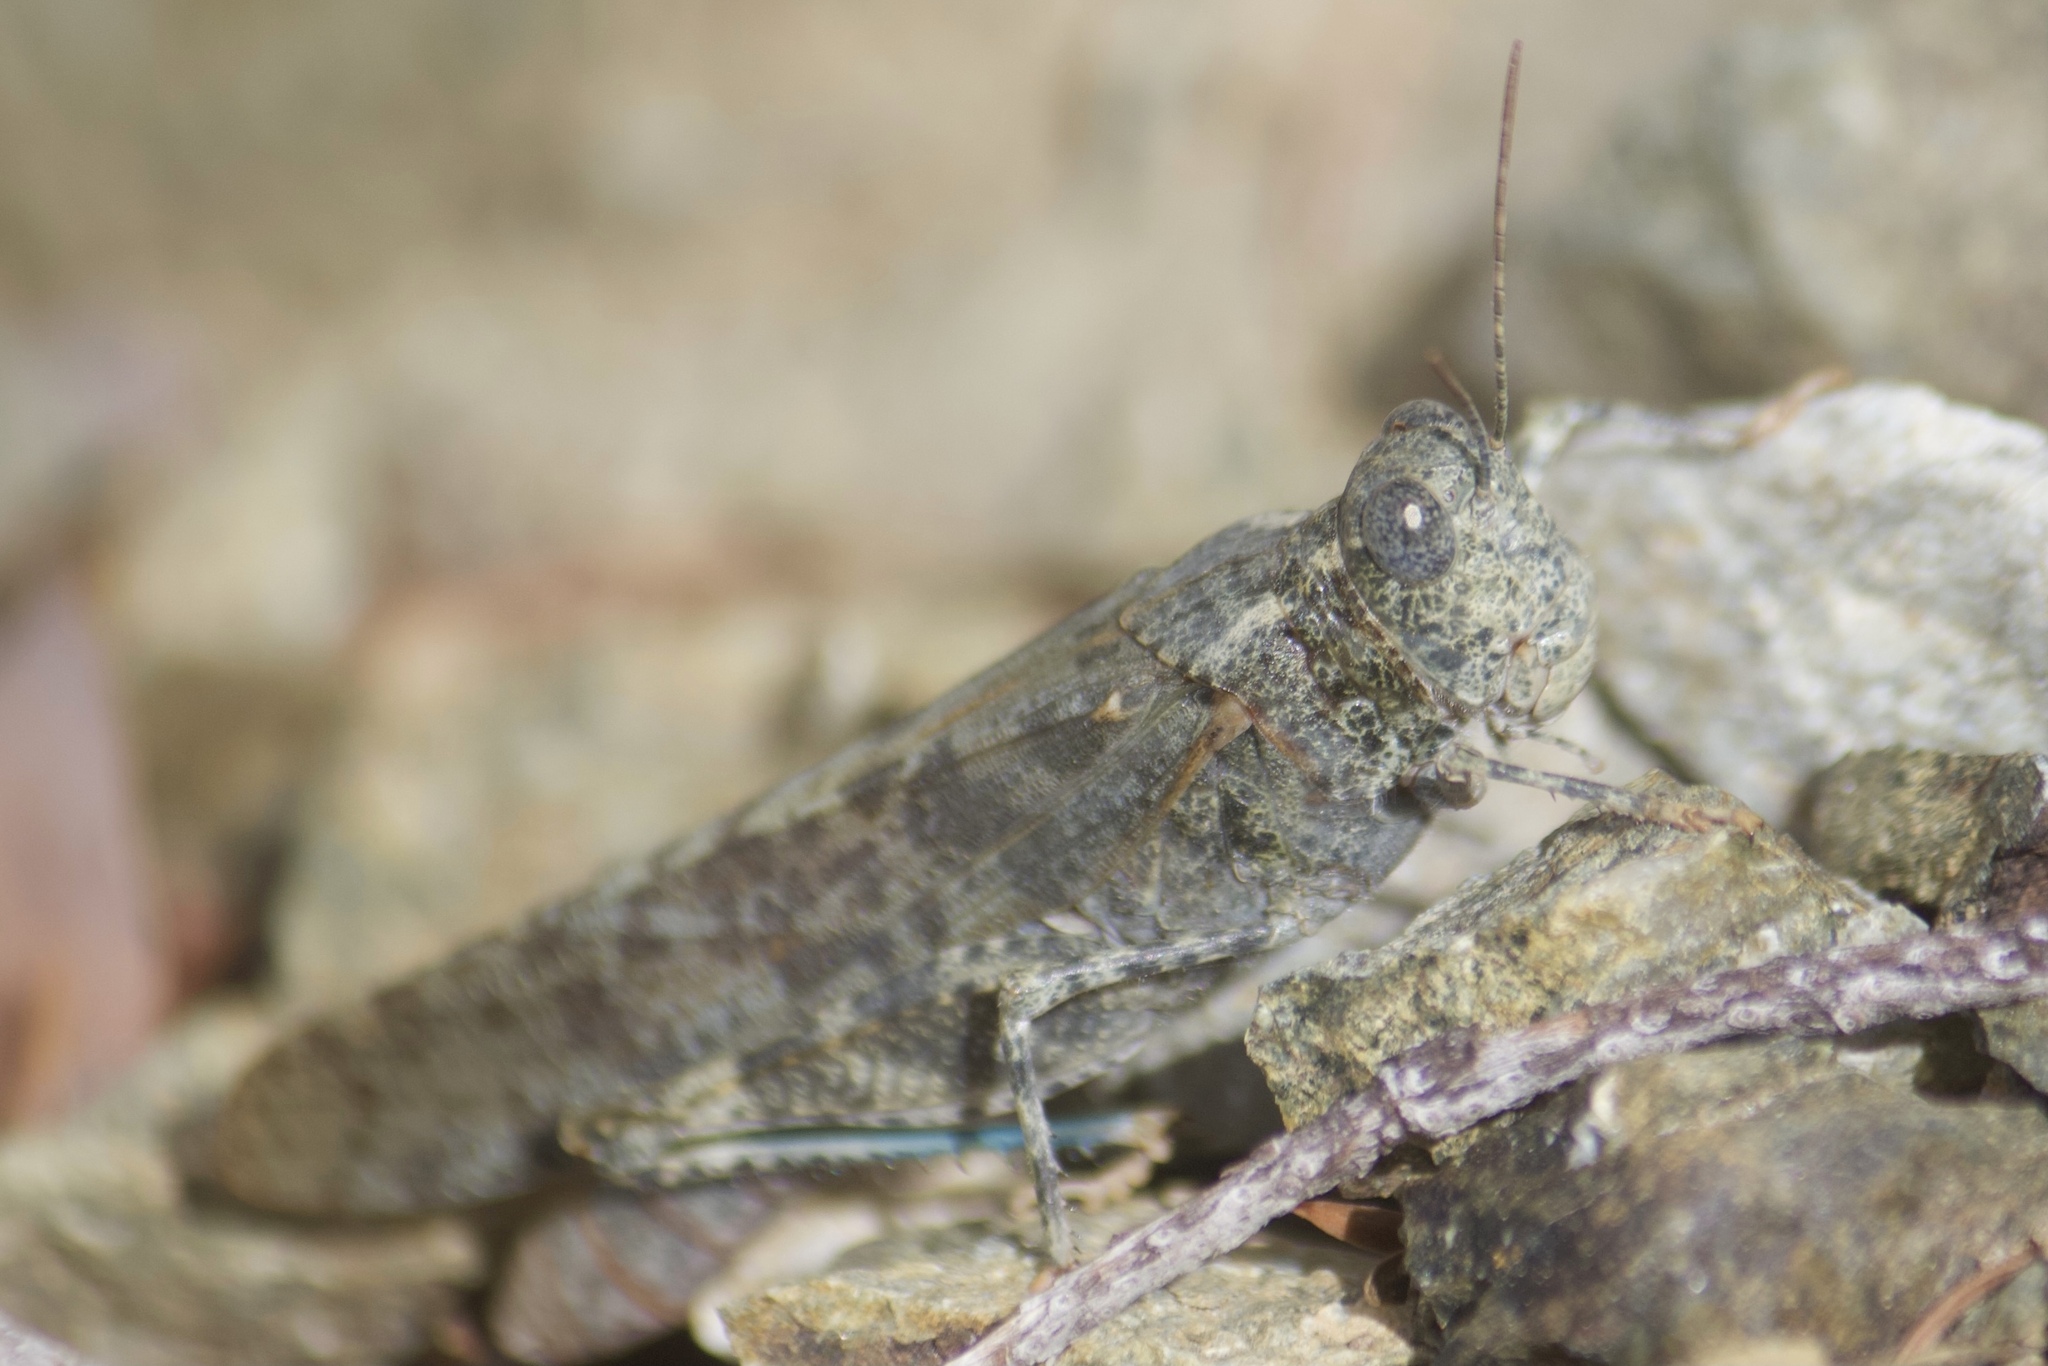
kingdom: Animalia
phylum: Arthropoda
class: Insecta
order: Orthoptera
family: Acrididae
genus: Circotettix
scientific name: Circotettix shastanus
